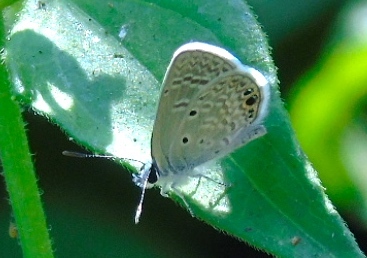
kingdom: Animalia
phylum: Arthropoda
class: Insecta
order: Lepidoptera
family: Lycaenidae
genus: Hemiargus
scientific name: Hemiargus ceraunus
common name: Ceraunus blue
